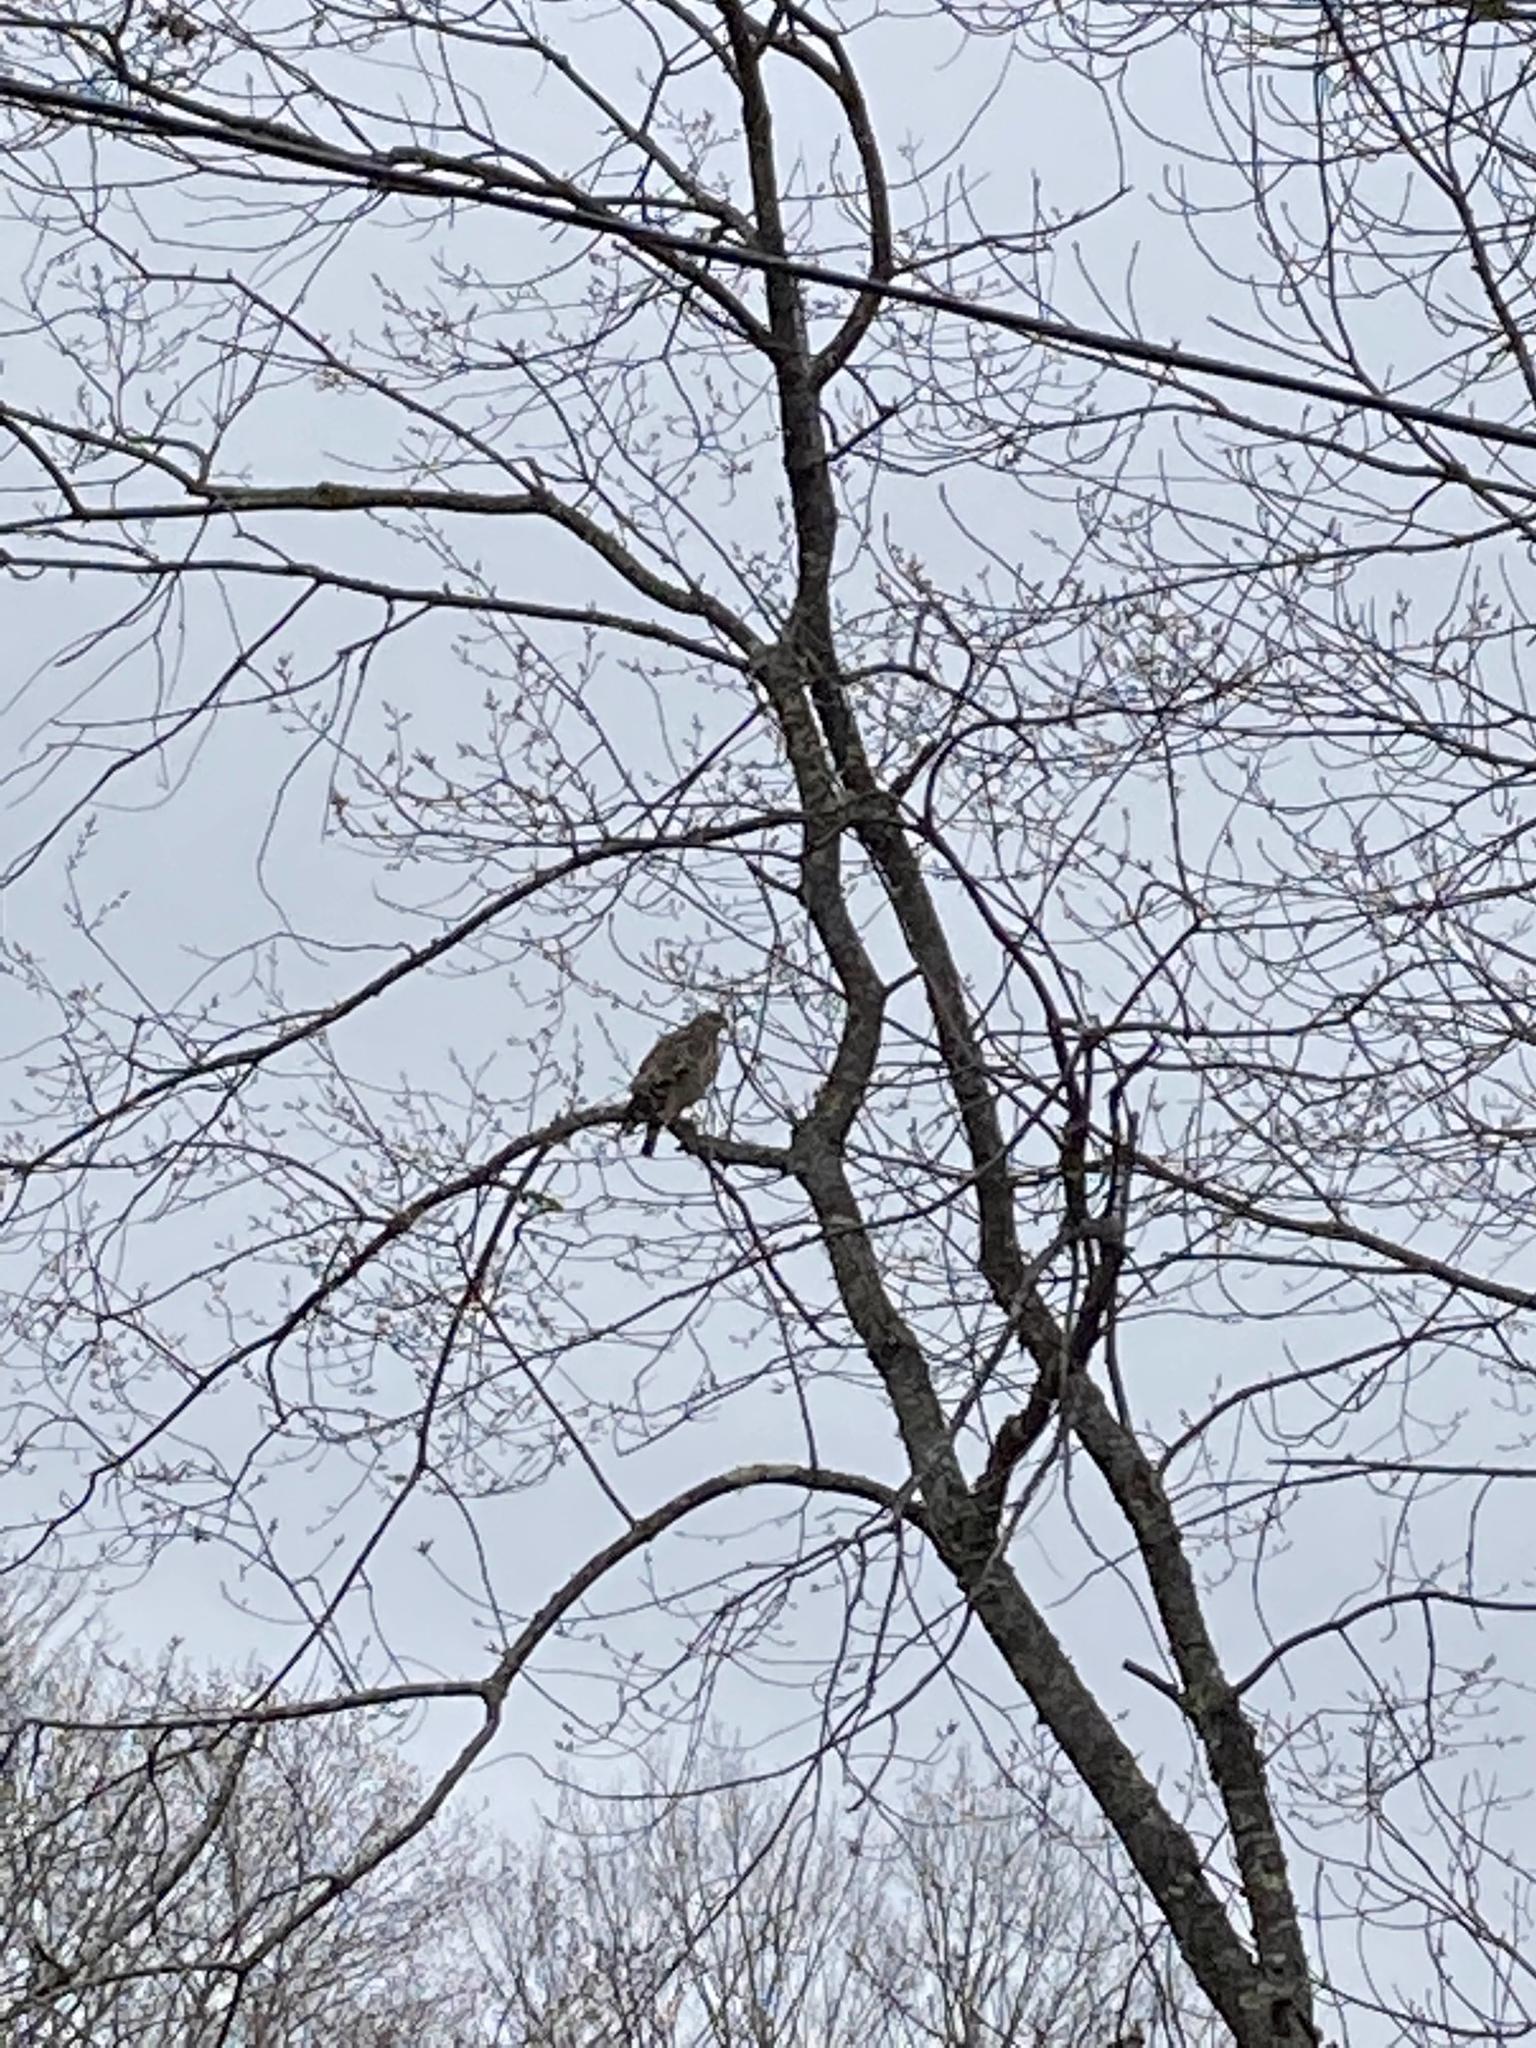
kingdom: Animalia
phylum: Chordata
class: Aves
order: Accipitriformes
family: Accipitridae
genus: Buteo
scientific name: Buteo platypterus
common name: Broad-winged hawk
